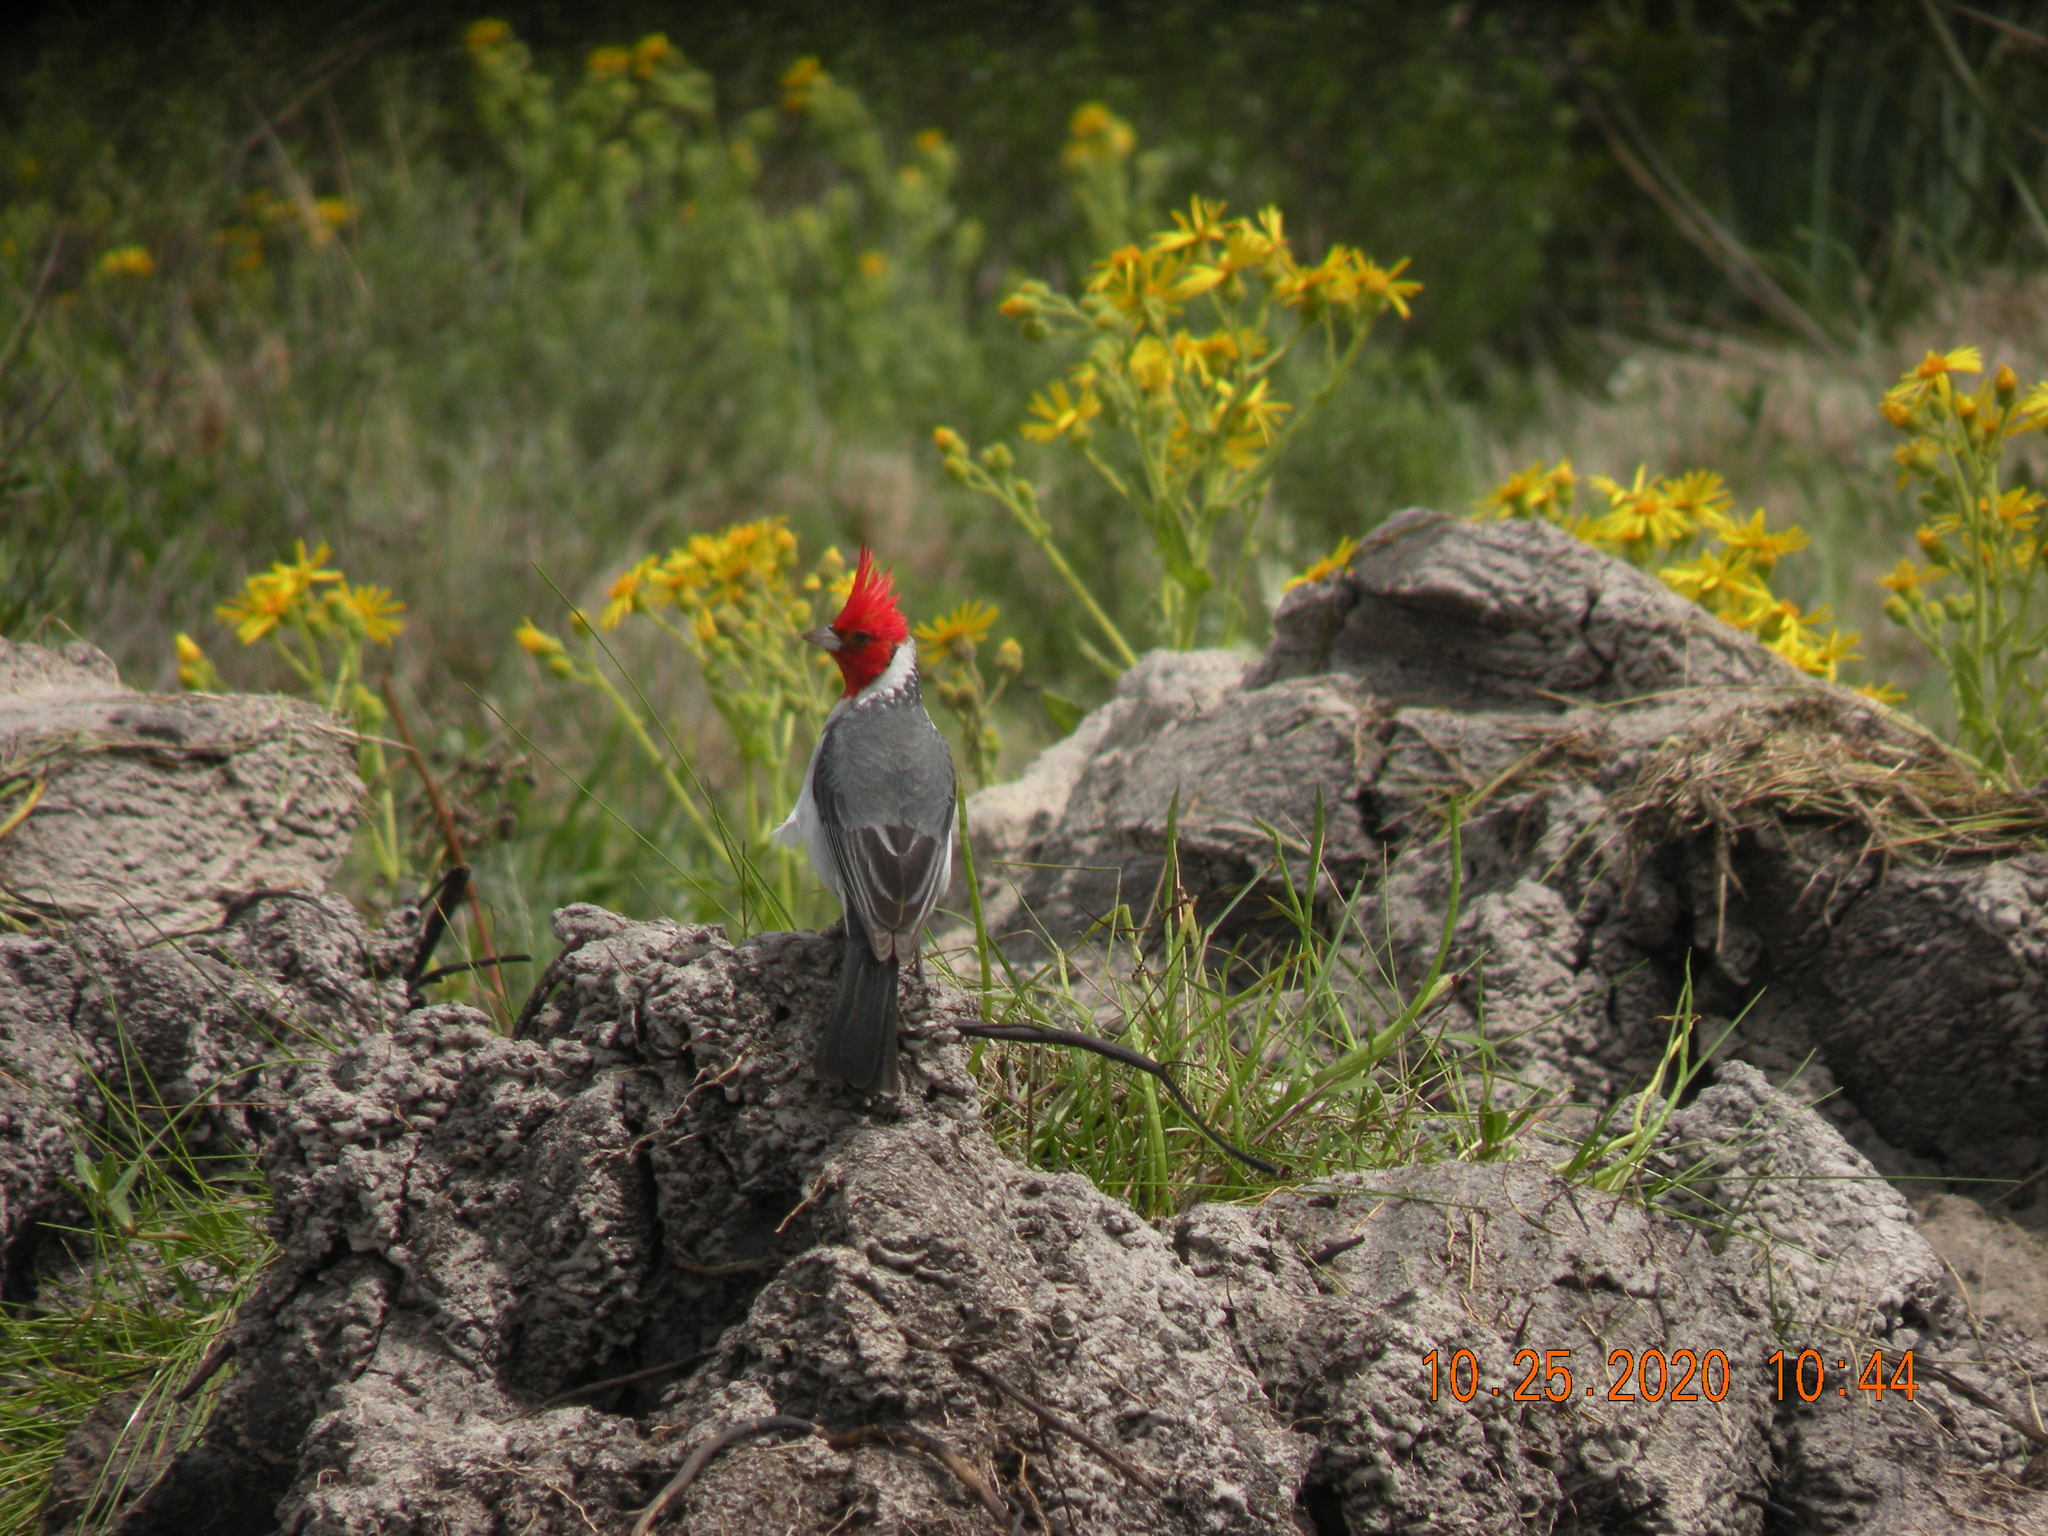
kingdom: Animalia
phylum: Chordata
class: Aves
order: Passeriformes
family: Thraupidae
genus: Paroaria
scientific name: Paroaria coronata
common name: Red-crested cardinal
